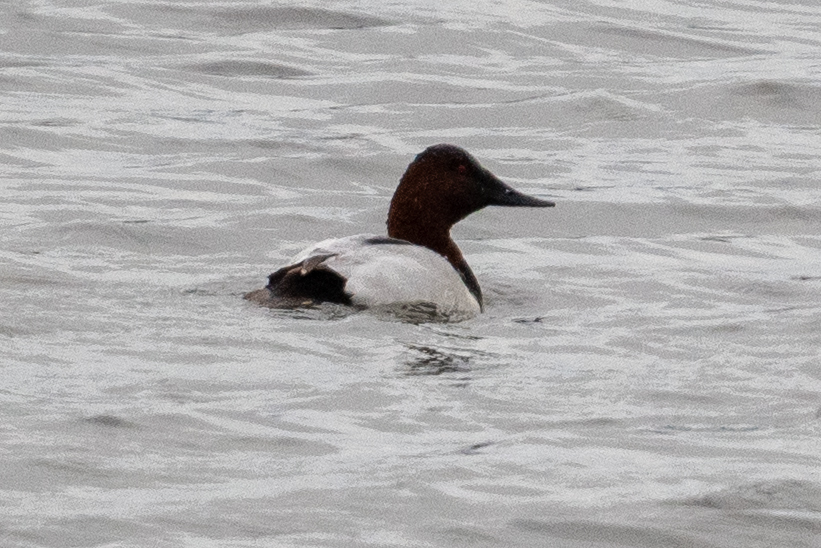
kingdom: Animalia
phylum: Chordata
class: Aves
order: Anseriformes
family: Anatidae
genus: Aythya
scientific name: Aythya valisineria
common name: Canvasback
